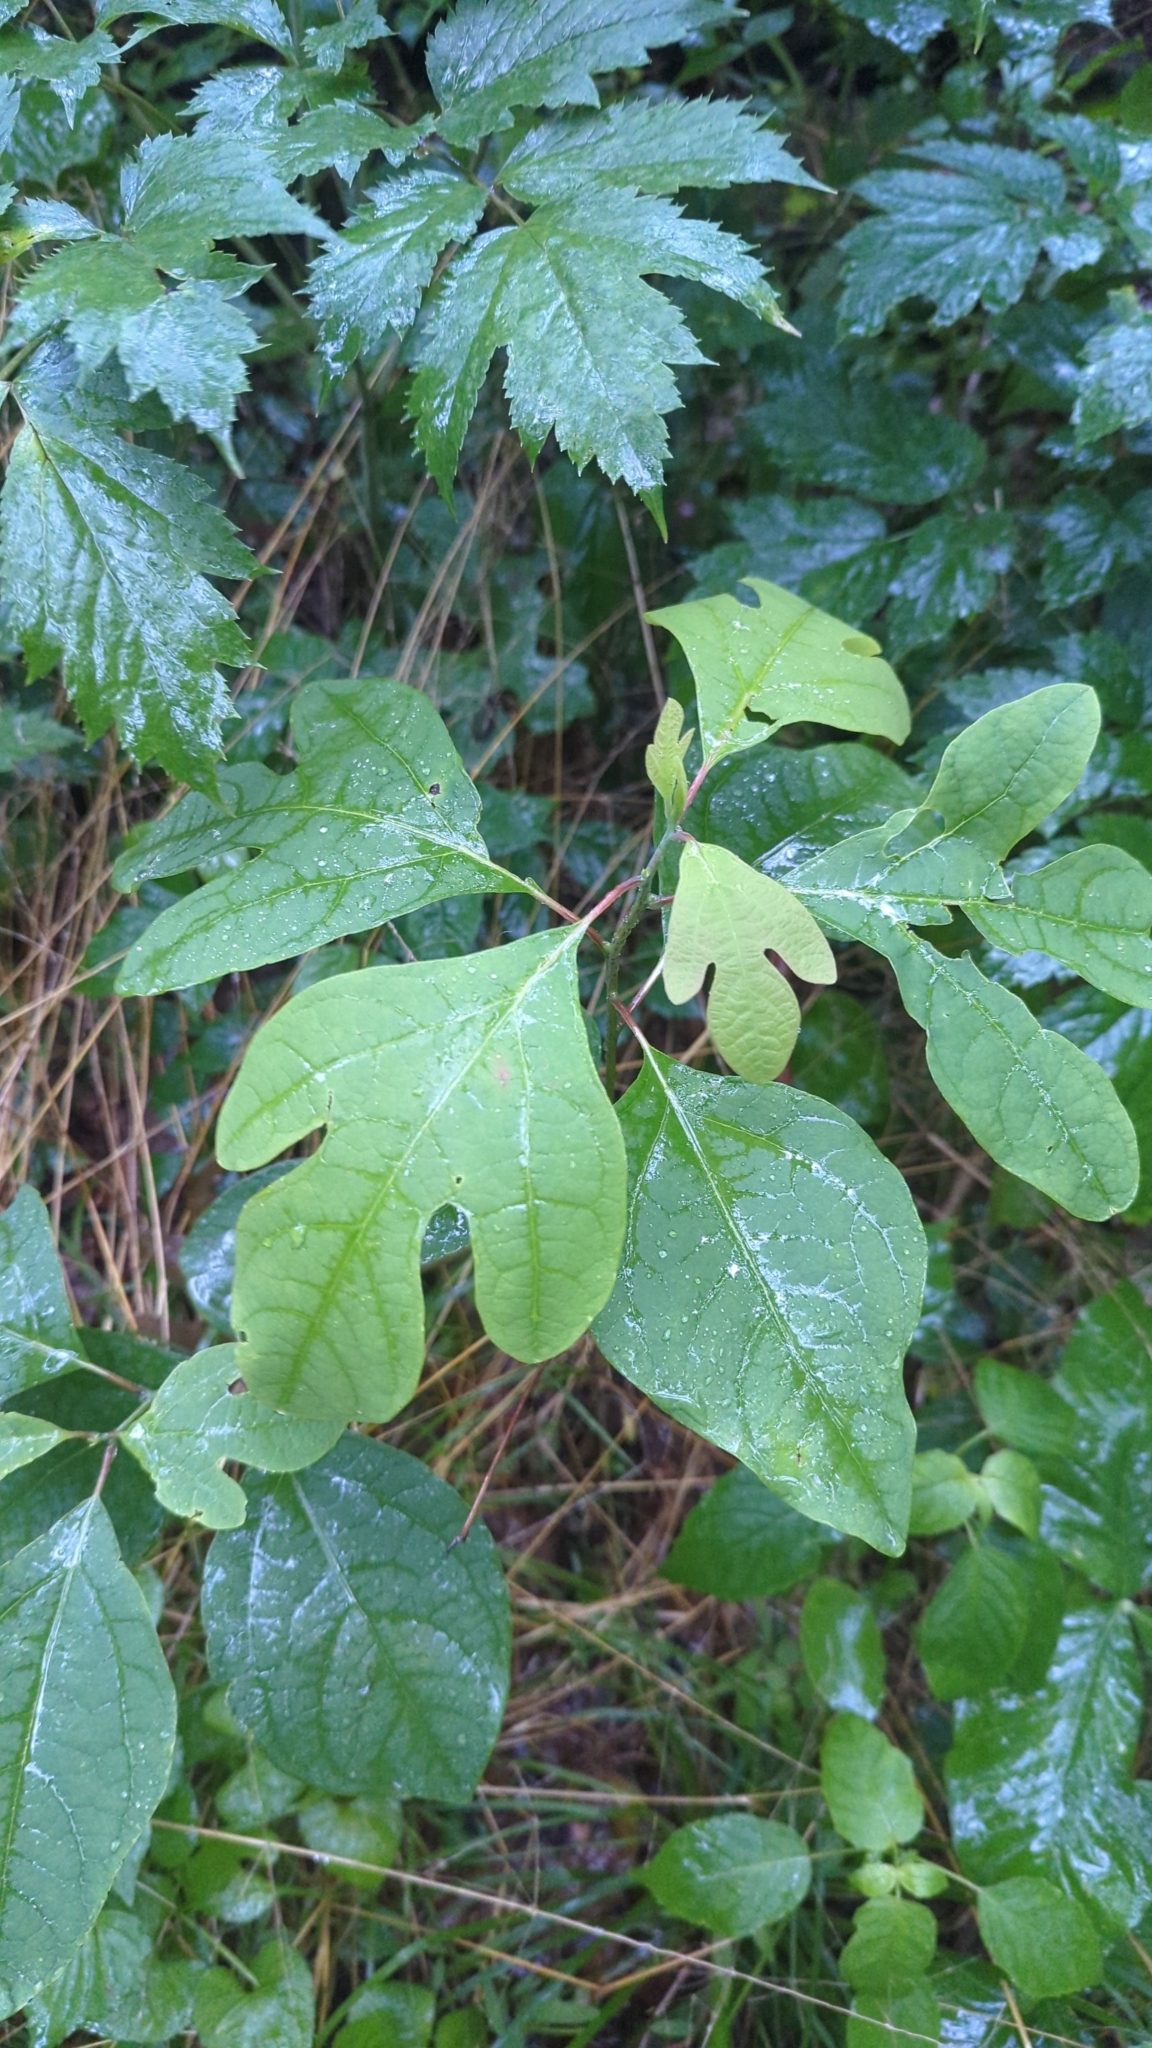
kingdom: Plantae
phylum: Tracheophyta
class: Magnoliopsida
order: Laurales
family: Lauraceae
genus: Sassafras
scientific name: Sassafras albidum
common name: Sassafras
